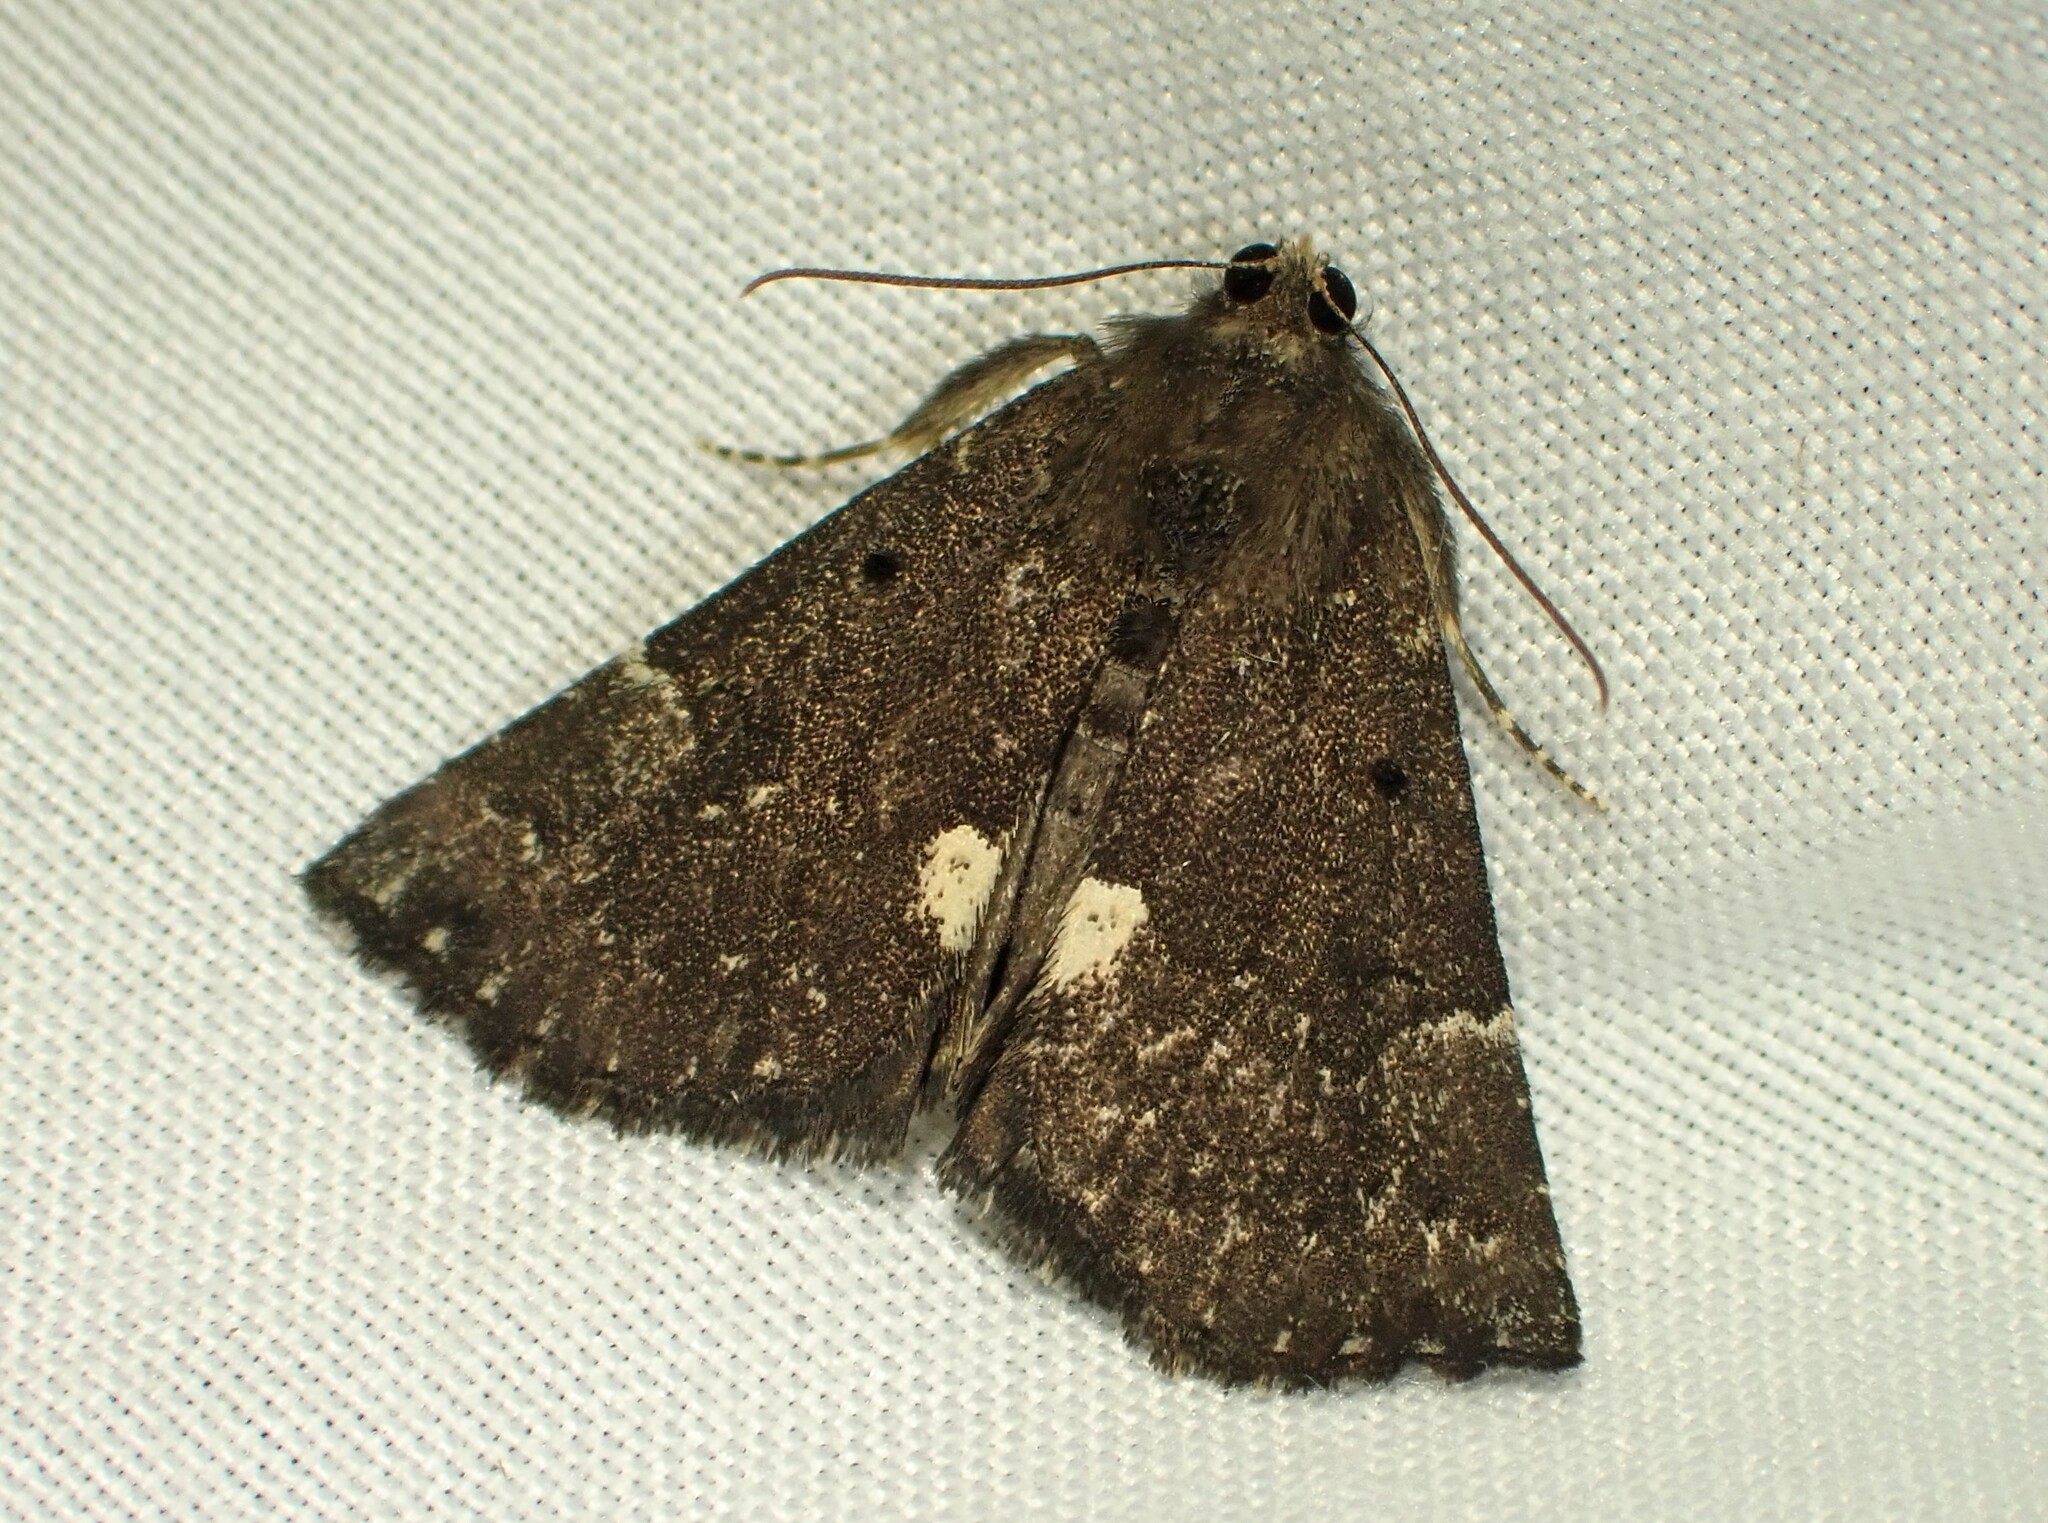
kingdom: Animalia
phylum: Arthropoda
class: Insecta
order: Lepidoptera
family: Erebidae
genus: Hypena
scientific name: Hypena bijugalis
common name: Dimorphic bomolocha moth
